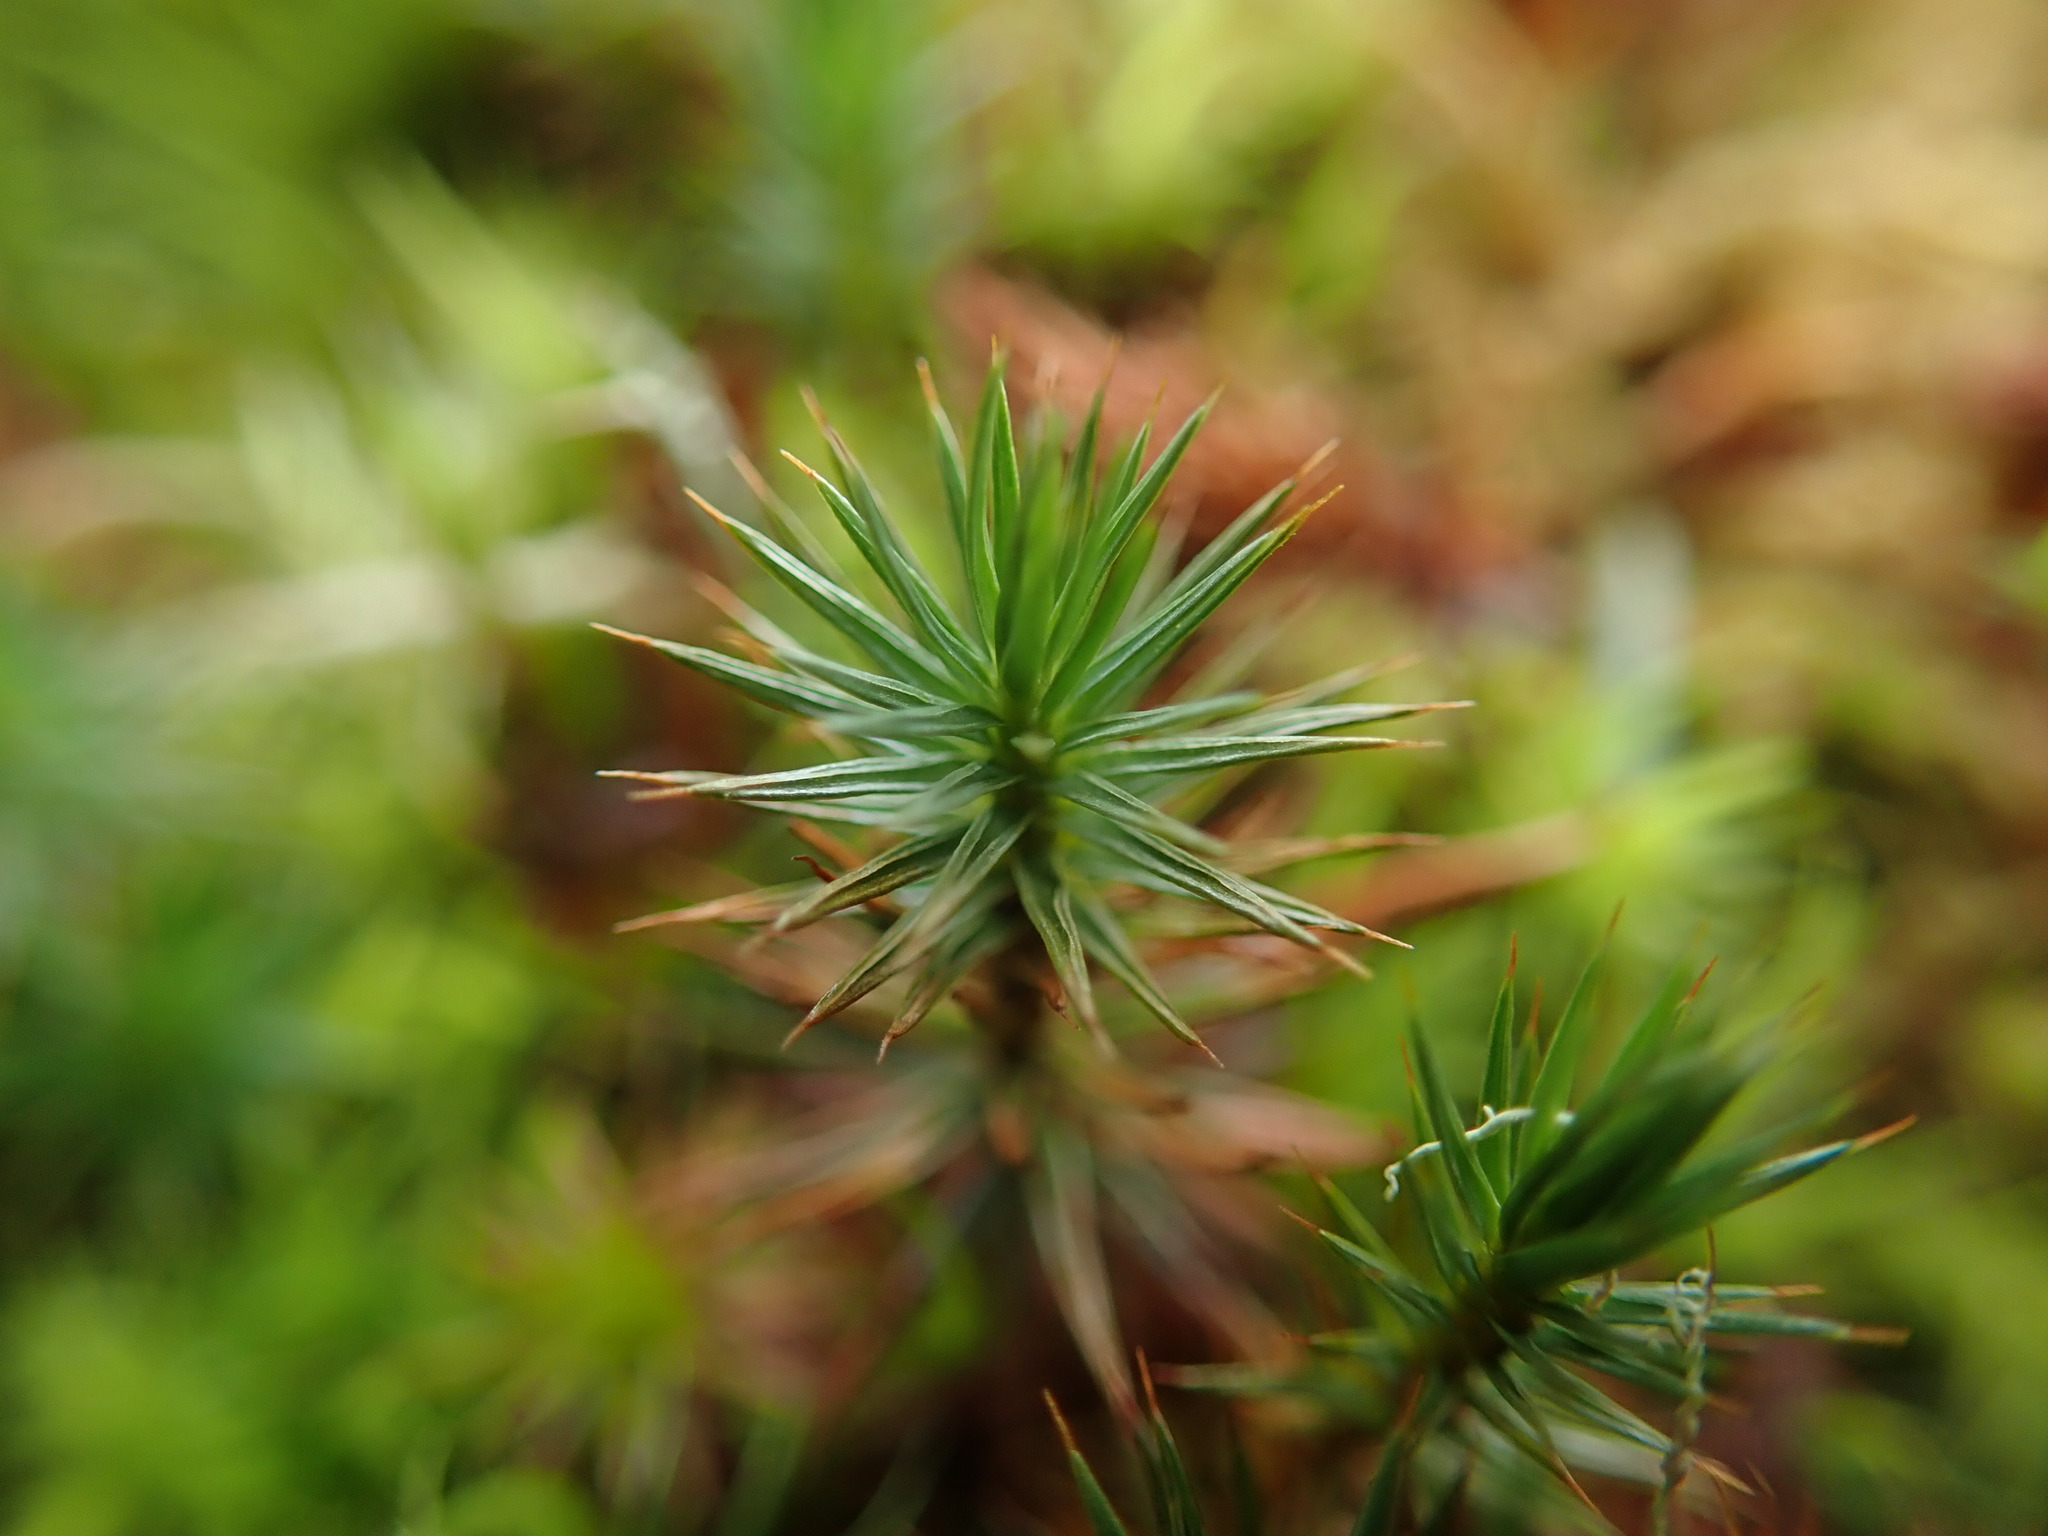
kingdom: Plantae
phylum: Bryophyta
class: Polytrichopsida
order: Polytrichales
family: Polytrichaceae
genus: Polytrichum
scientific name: Polytrichum juniperinum
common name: Juniper haircap moss
